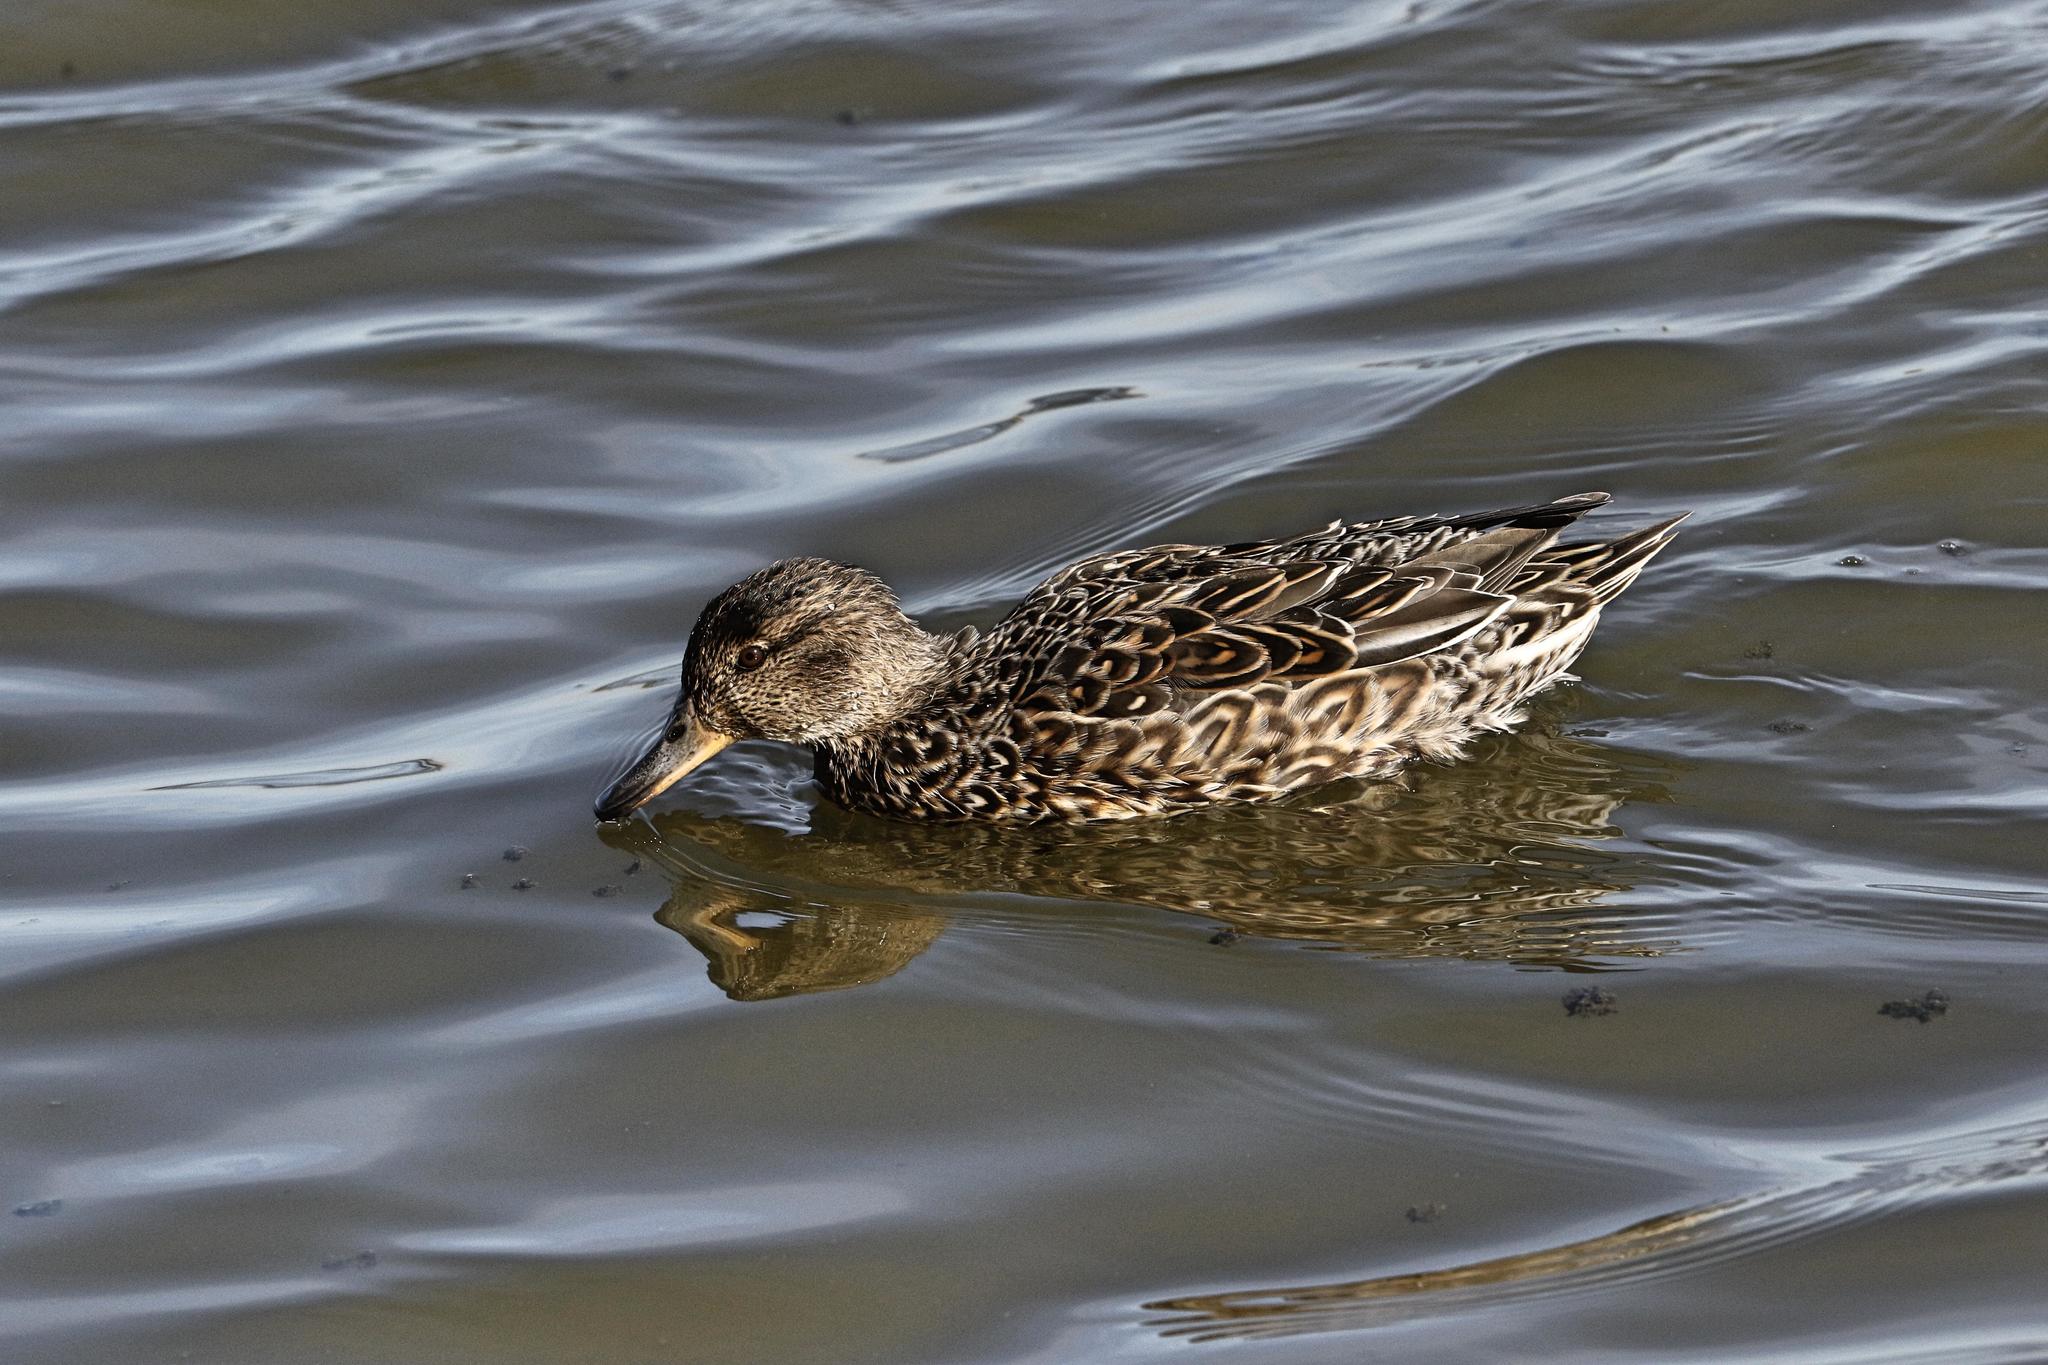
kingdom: Animalia
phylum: Chordata
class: Aves
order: Anseriformes
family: Anatidae
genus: Anas
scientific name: Anas crecca
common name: Eurasian teal
